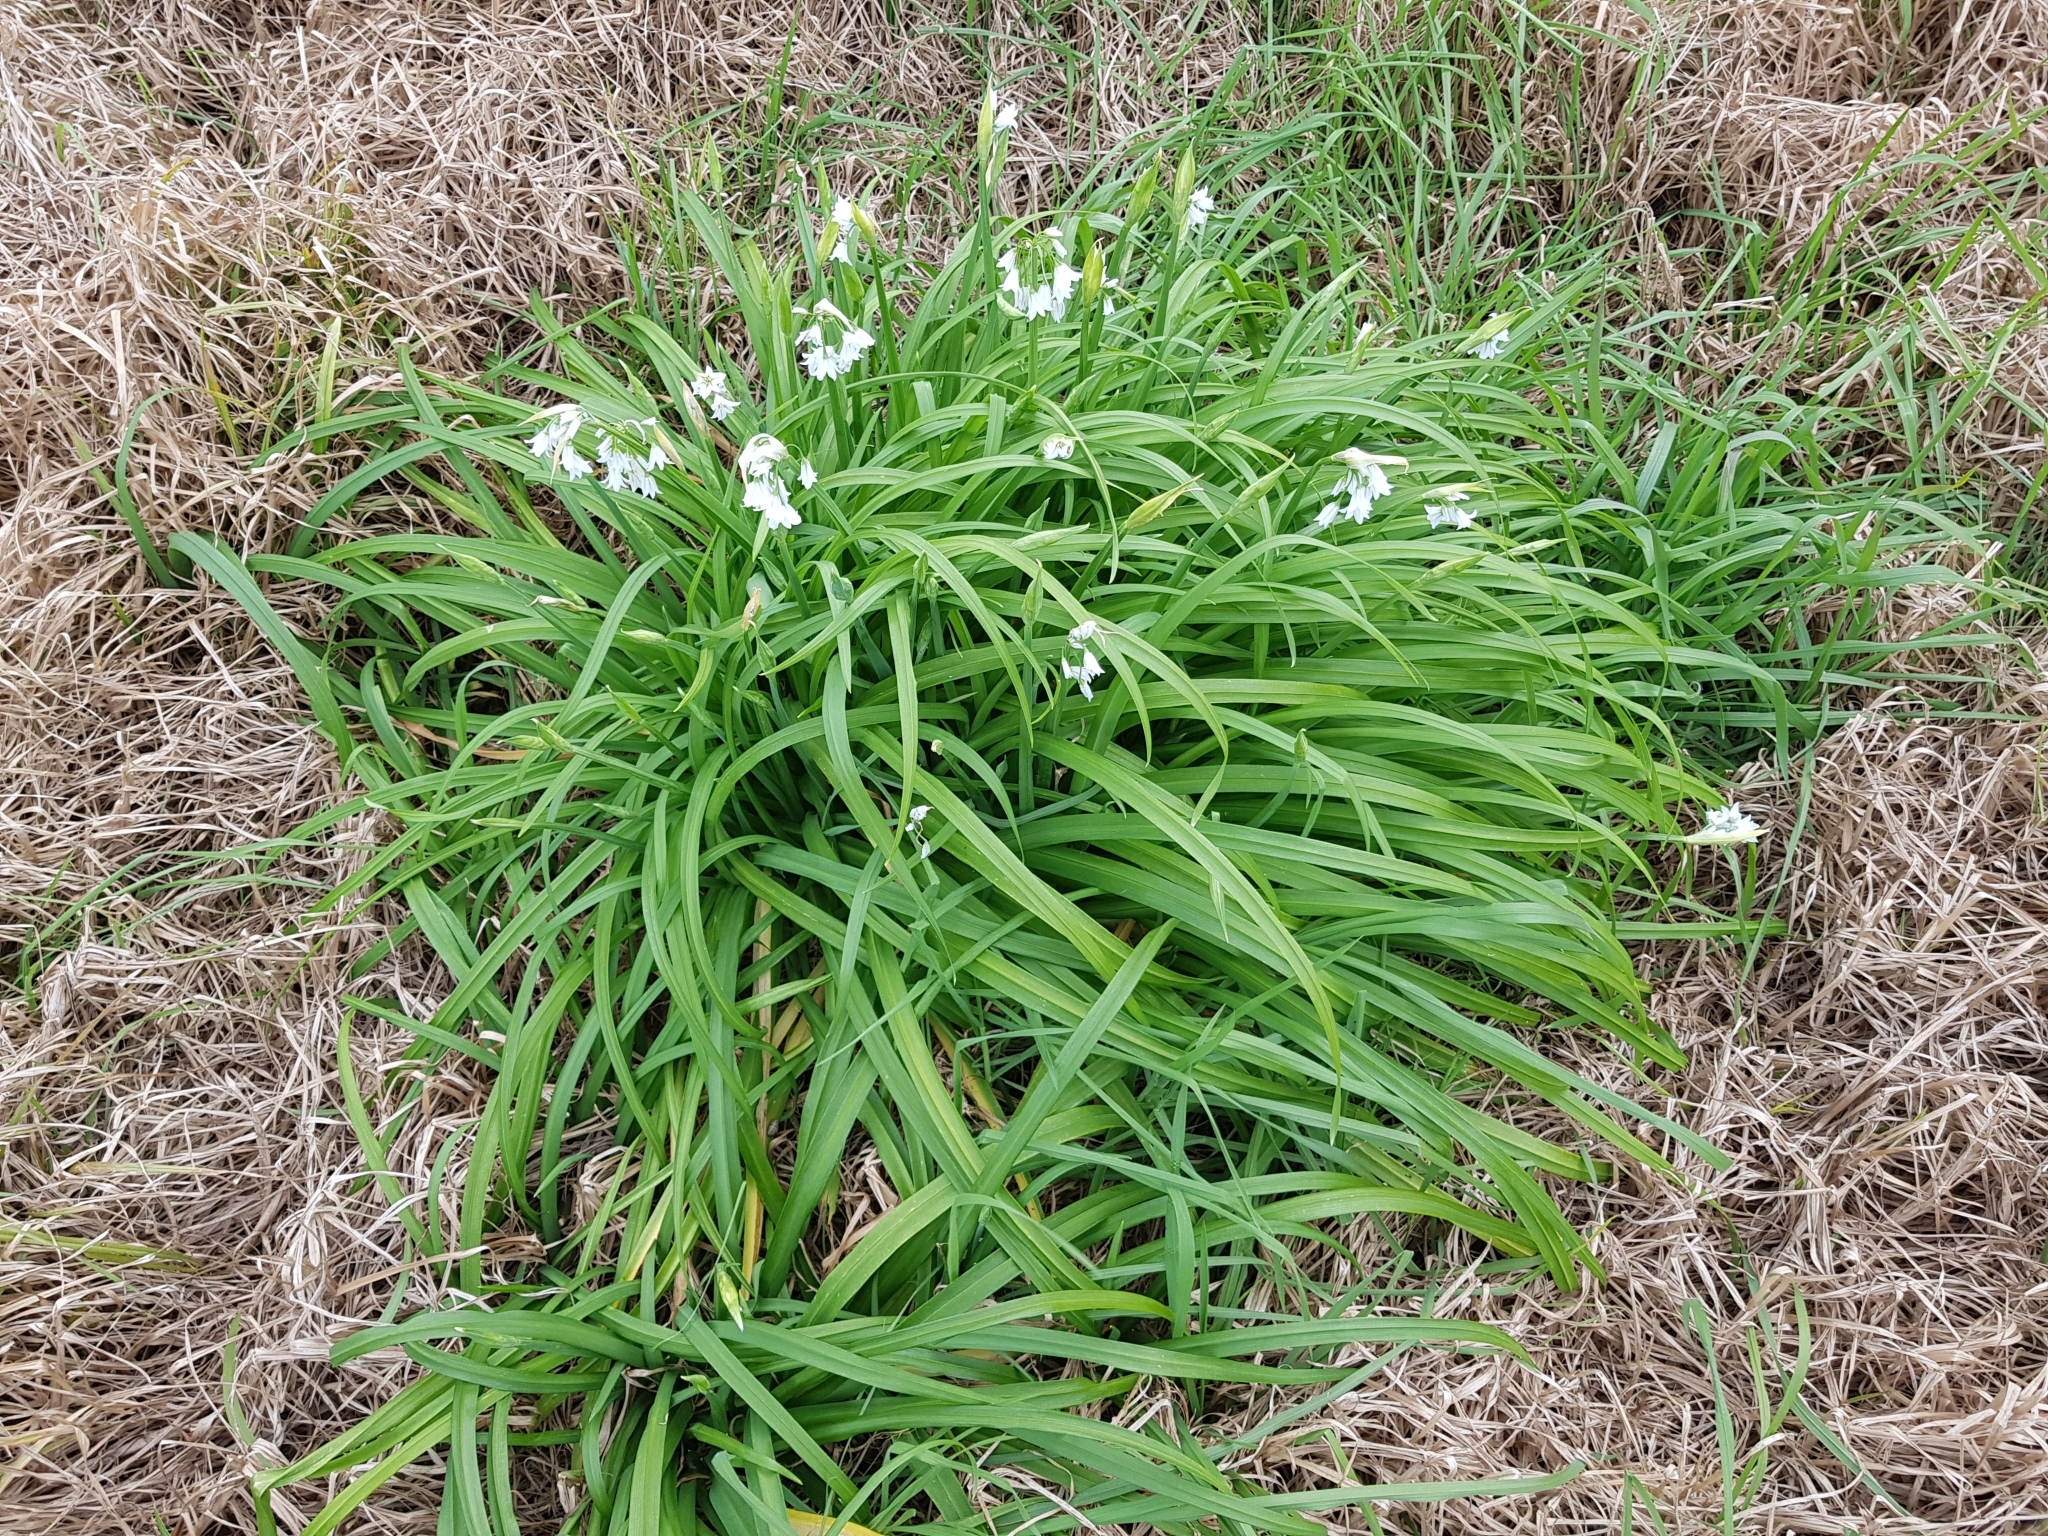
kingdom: Plantae
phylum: Tracheophyta
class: Liliopsida
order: Asparagales
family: Amaryllidaceae
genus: Allium
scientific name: Allium triquetrum
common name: Three-cornered garlic
